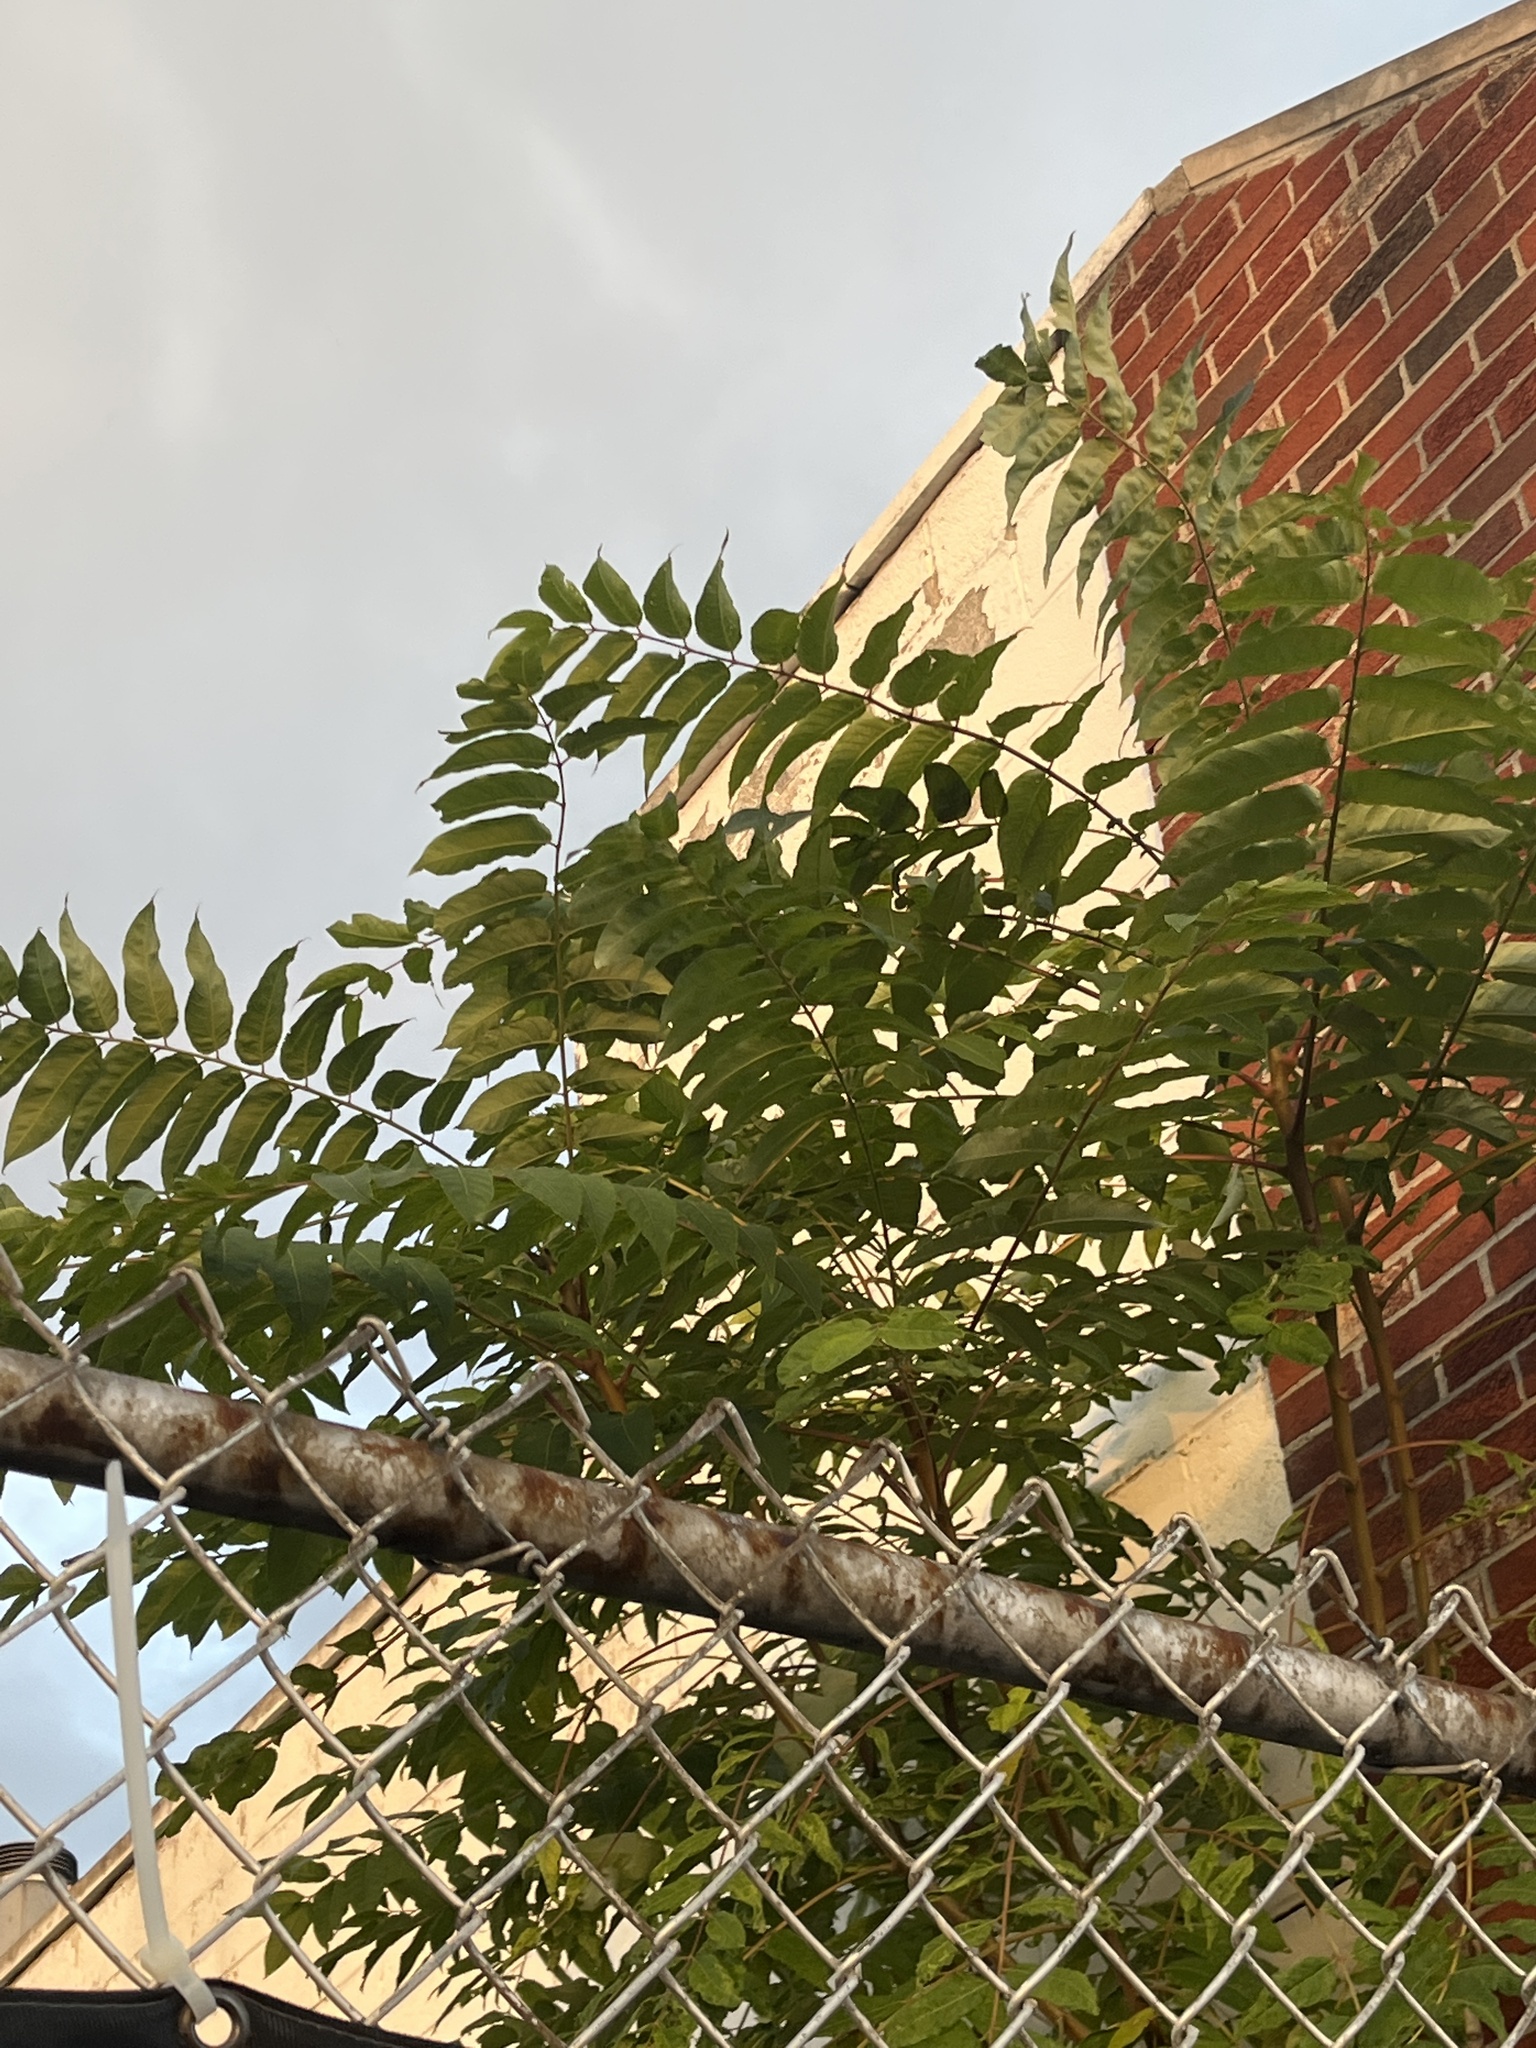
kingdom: Plantae
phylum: Tracheophyta
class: Magnoliopsida
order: Sapindales
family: Simaroubaceae
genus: Ailanthus
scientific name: Ailanthus altissima
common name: Tree-of-heaven
